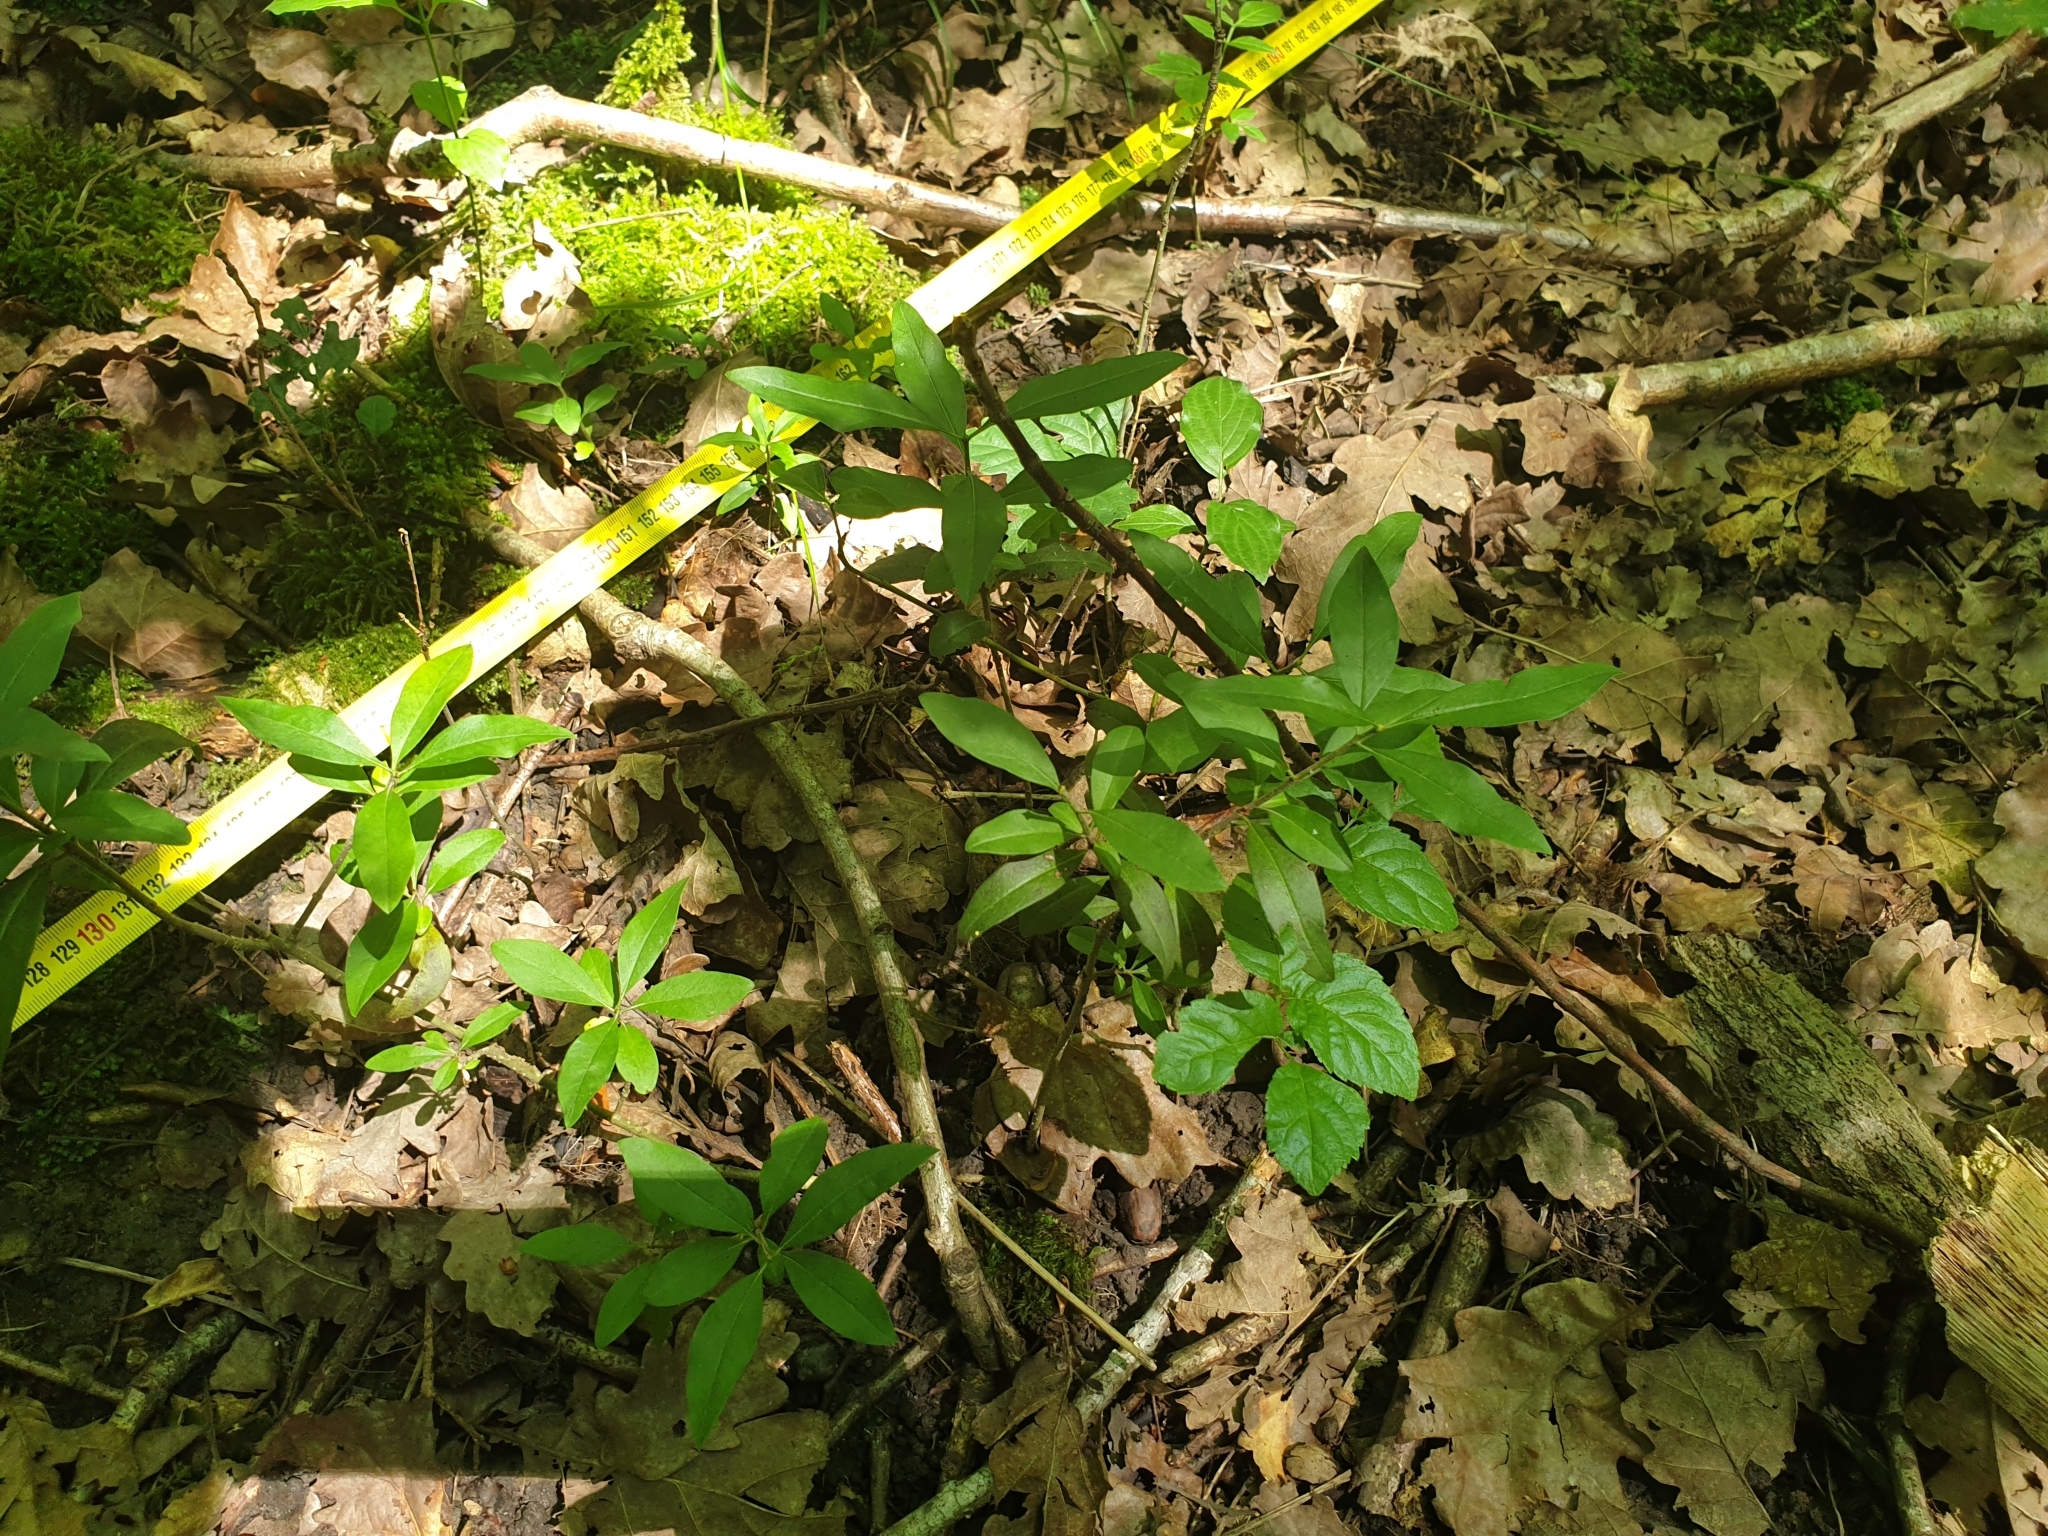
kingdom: Plantae
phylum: Tracheophyta
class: Magnoliopsida
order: Lamiales
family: Oleaceae
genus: Ligustrum
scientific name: Ligustrum vulgare
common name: Wild privet
